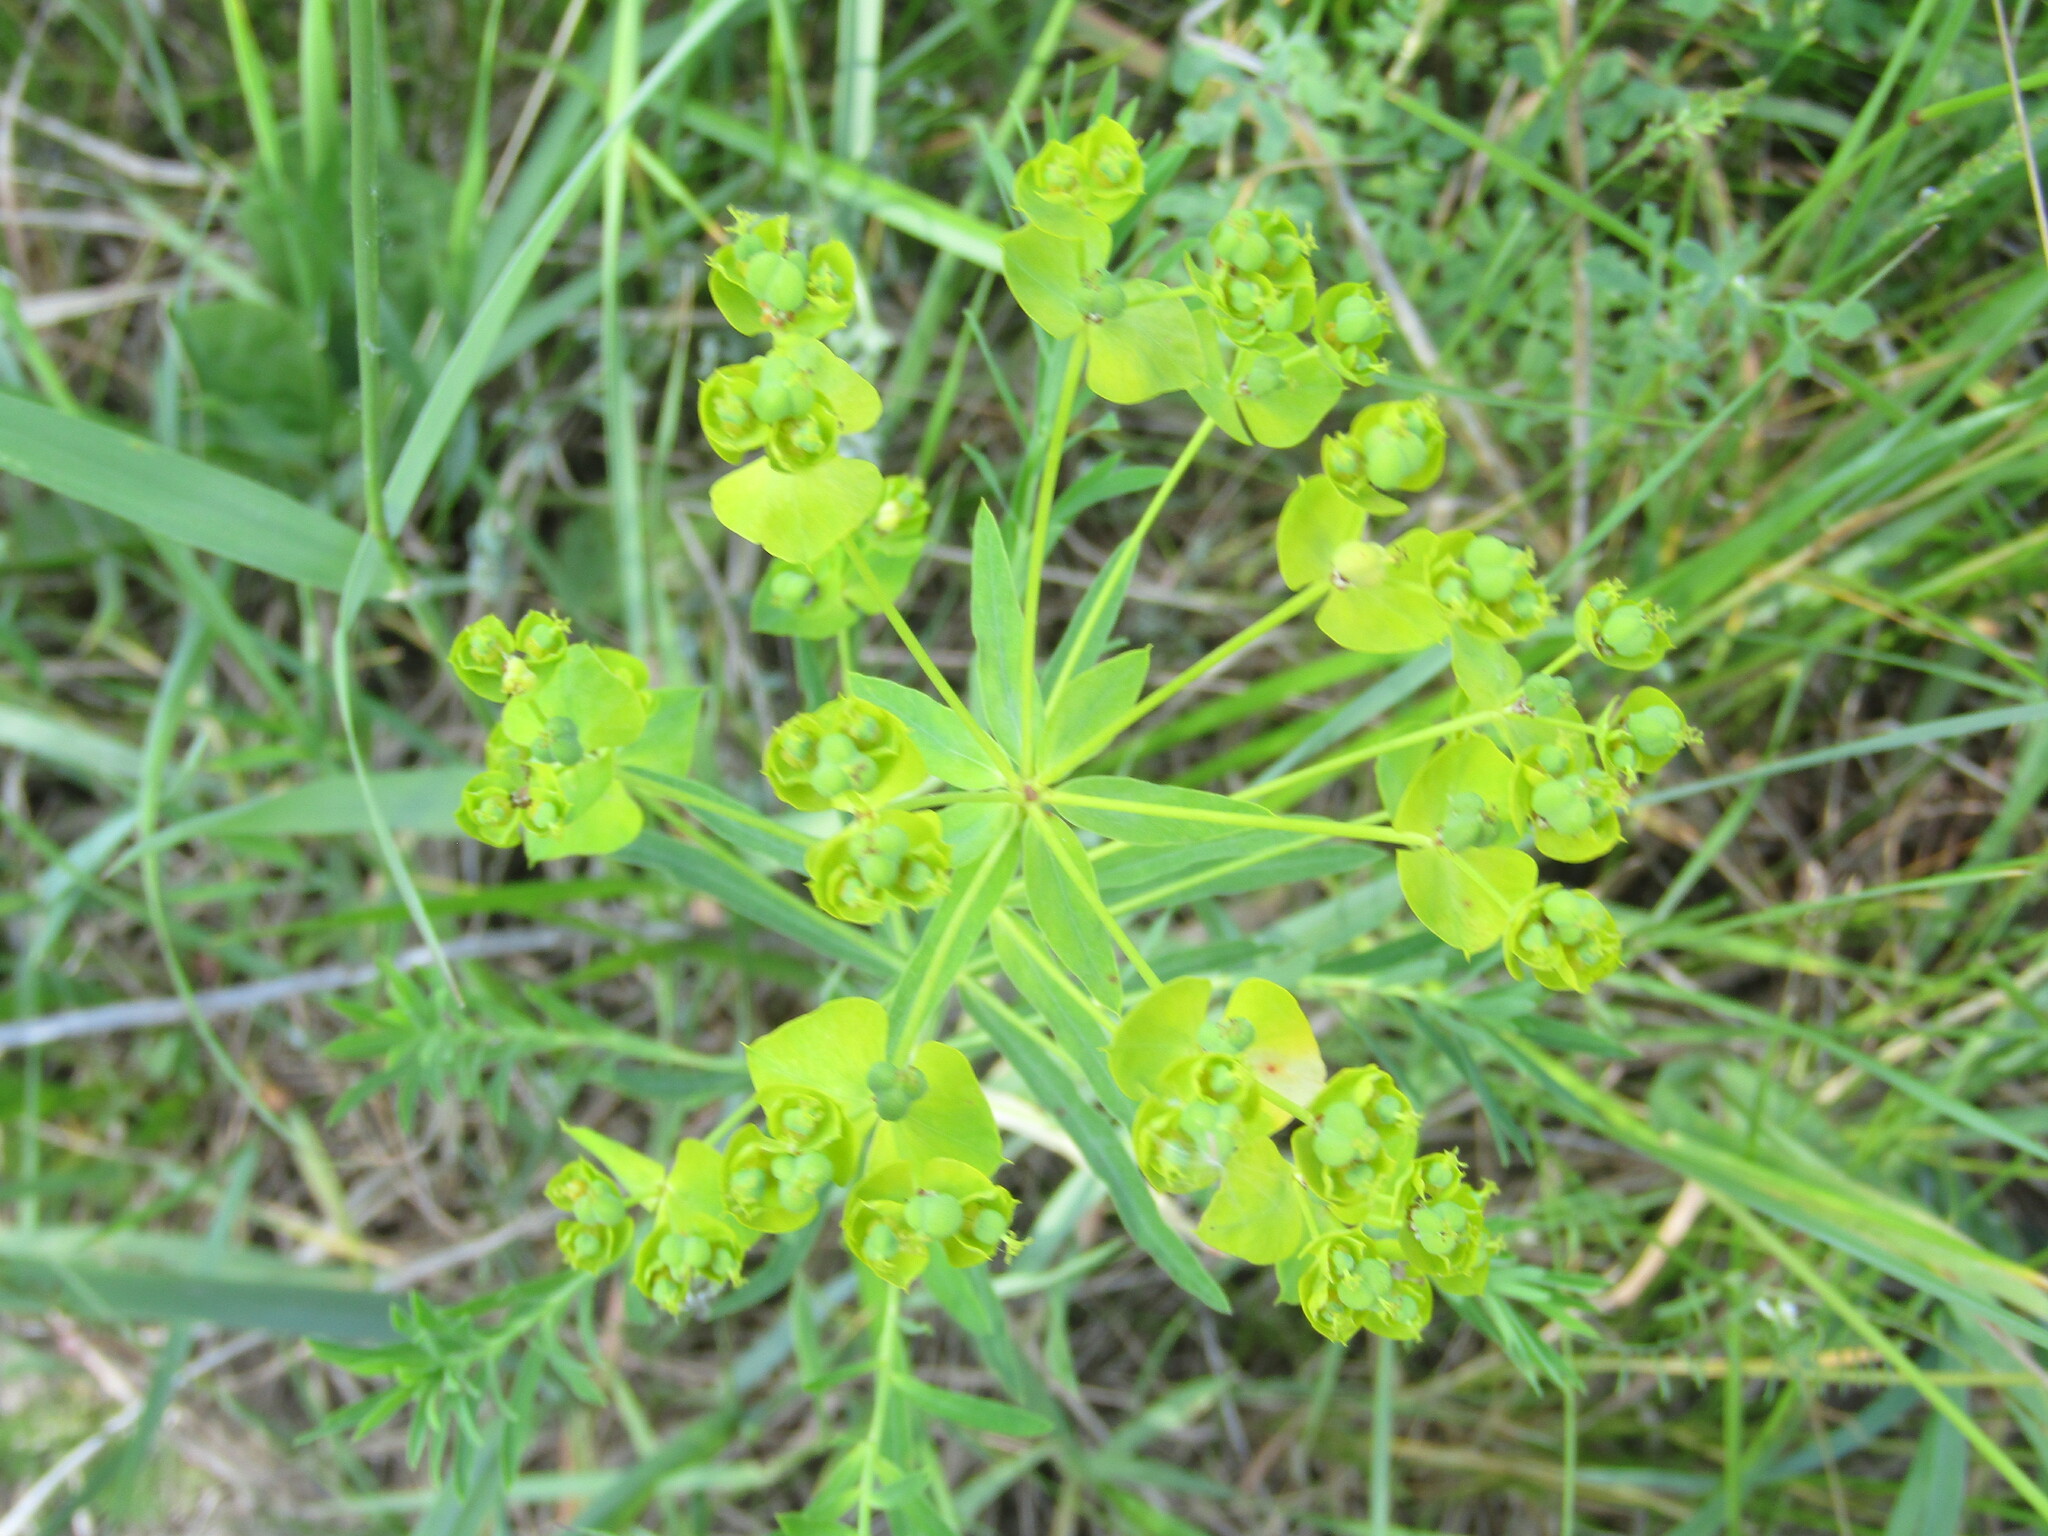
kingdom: Plantae
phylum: Tracheophyta
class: Magnoliopsida
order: Malpighiales
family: Euphorbiaceae
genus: Euphorbia
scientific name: Euphorbia virgata
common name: Leafy spurge
